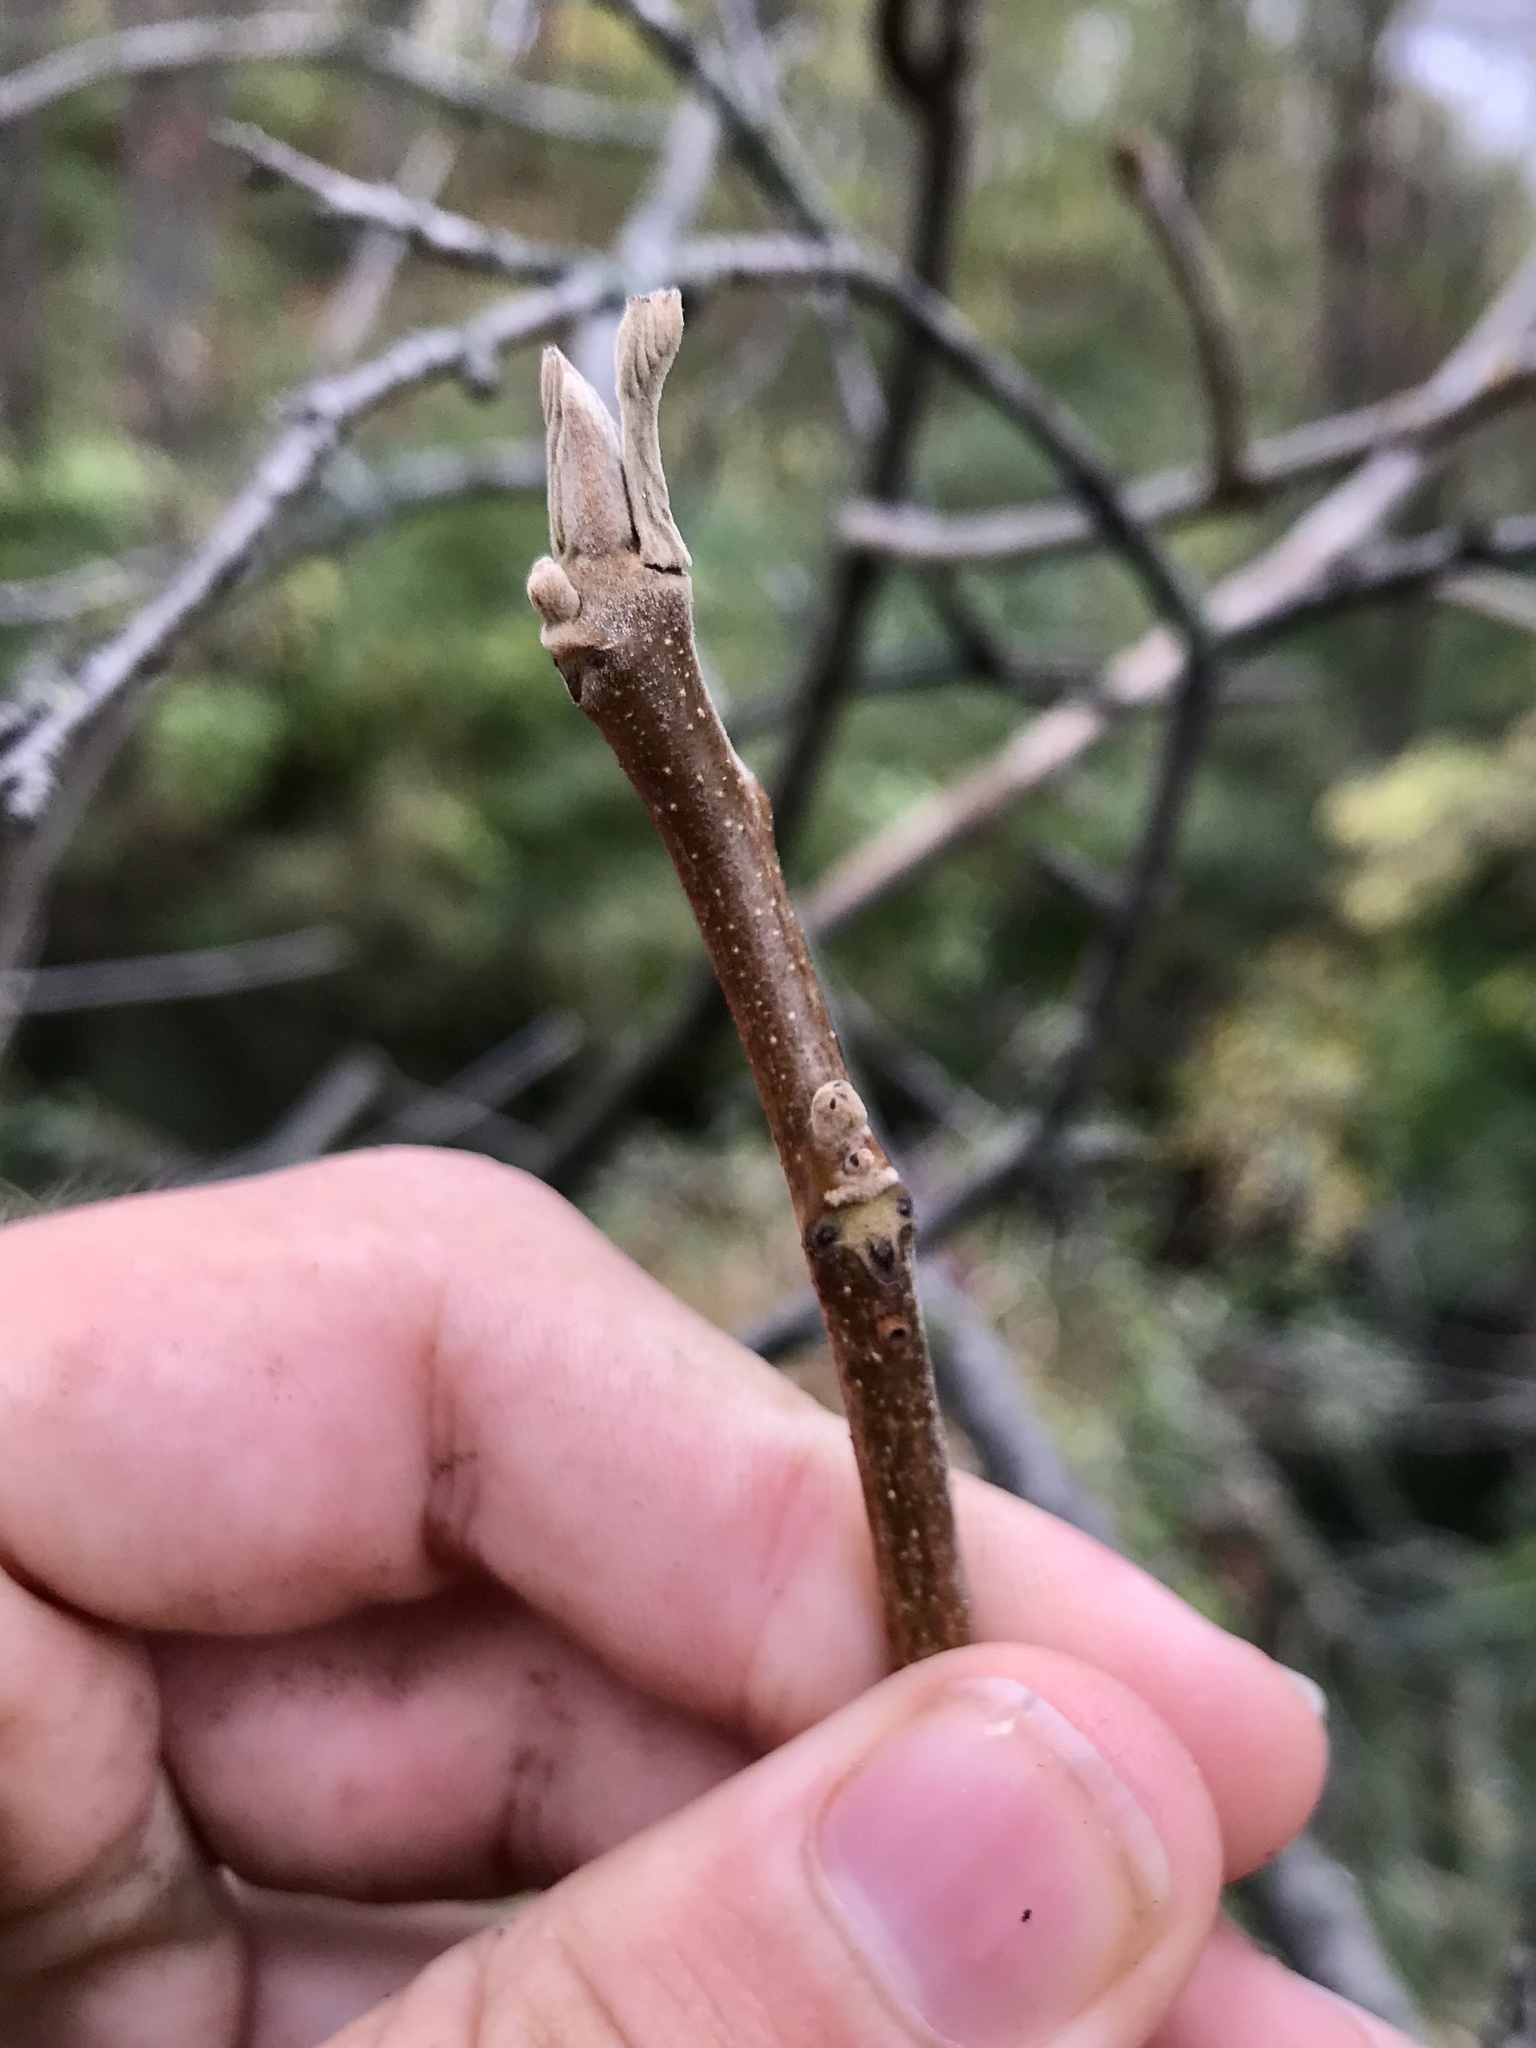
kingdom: Plantae
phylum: Tracheophyta
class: Magnoliopsida
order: Fagales
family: Juglandaceae
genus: Juglans
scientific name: Juglans cinerea
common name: Butternut
